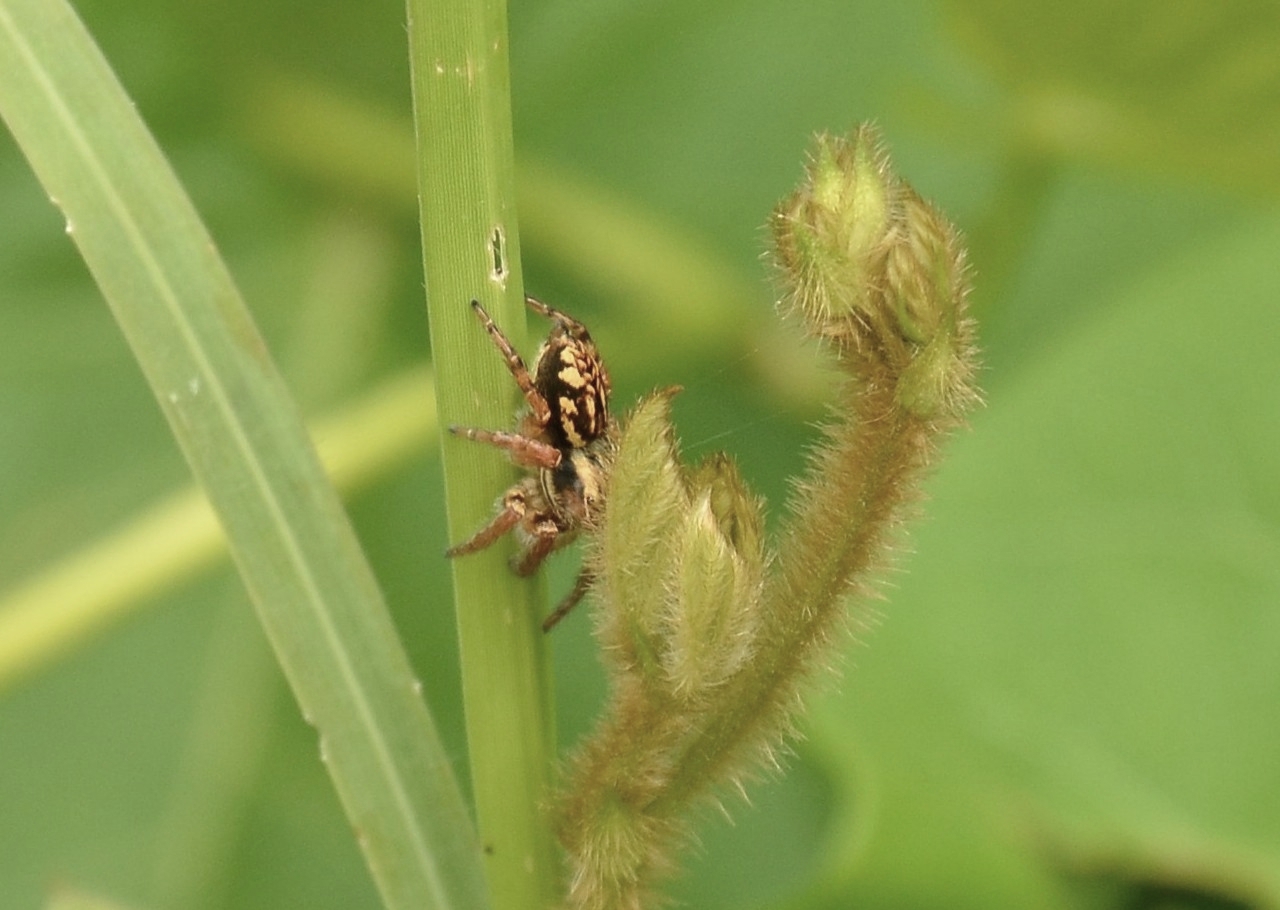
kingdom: Animalia
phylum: Arthropoda
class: Arachnida
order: Araneae
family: Salticidae
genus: Carrhotus
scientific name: Carrhotus viduus
